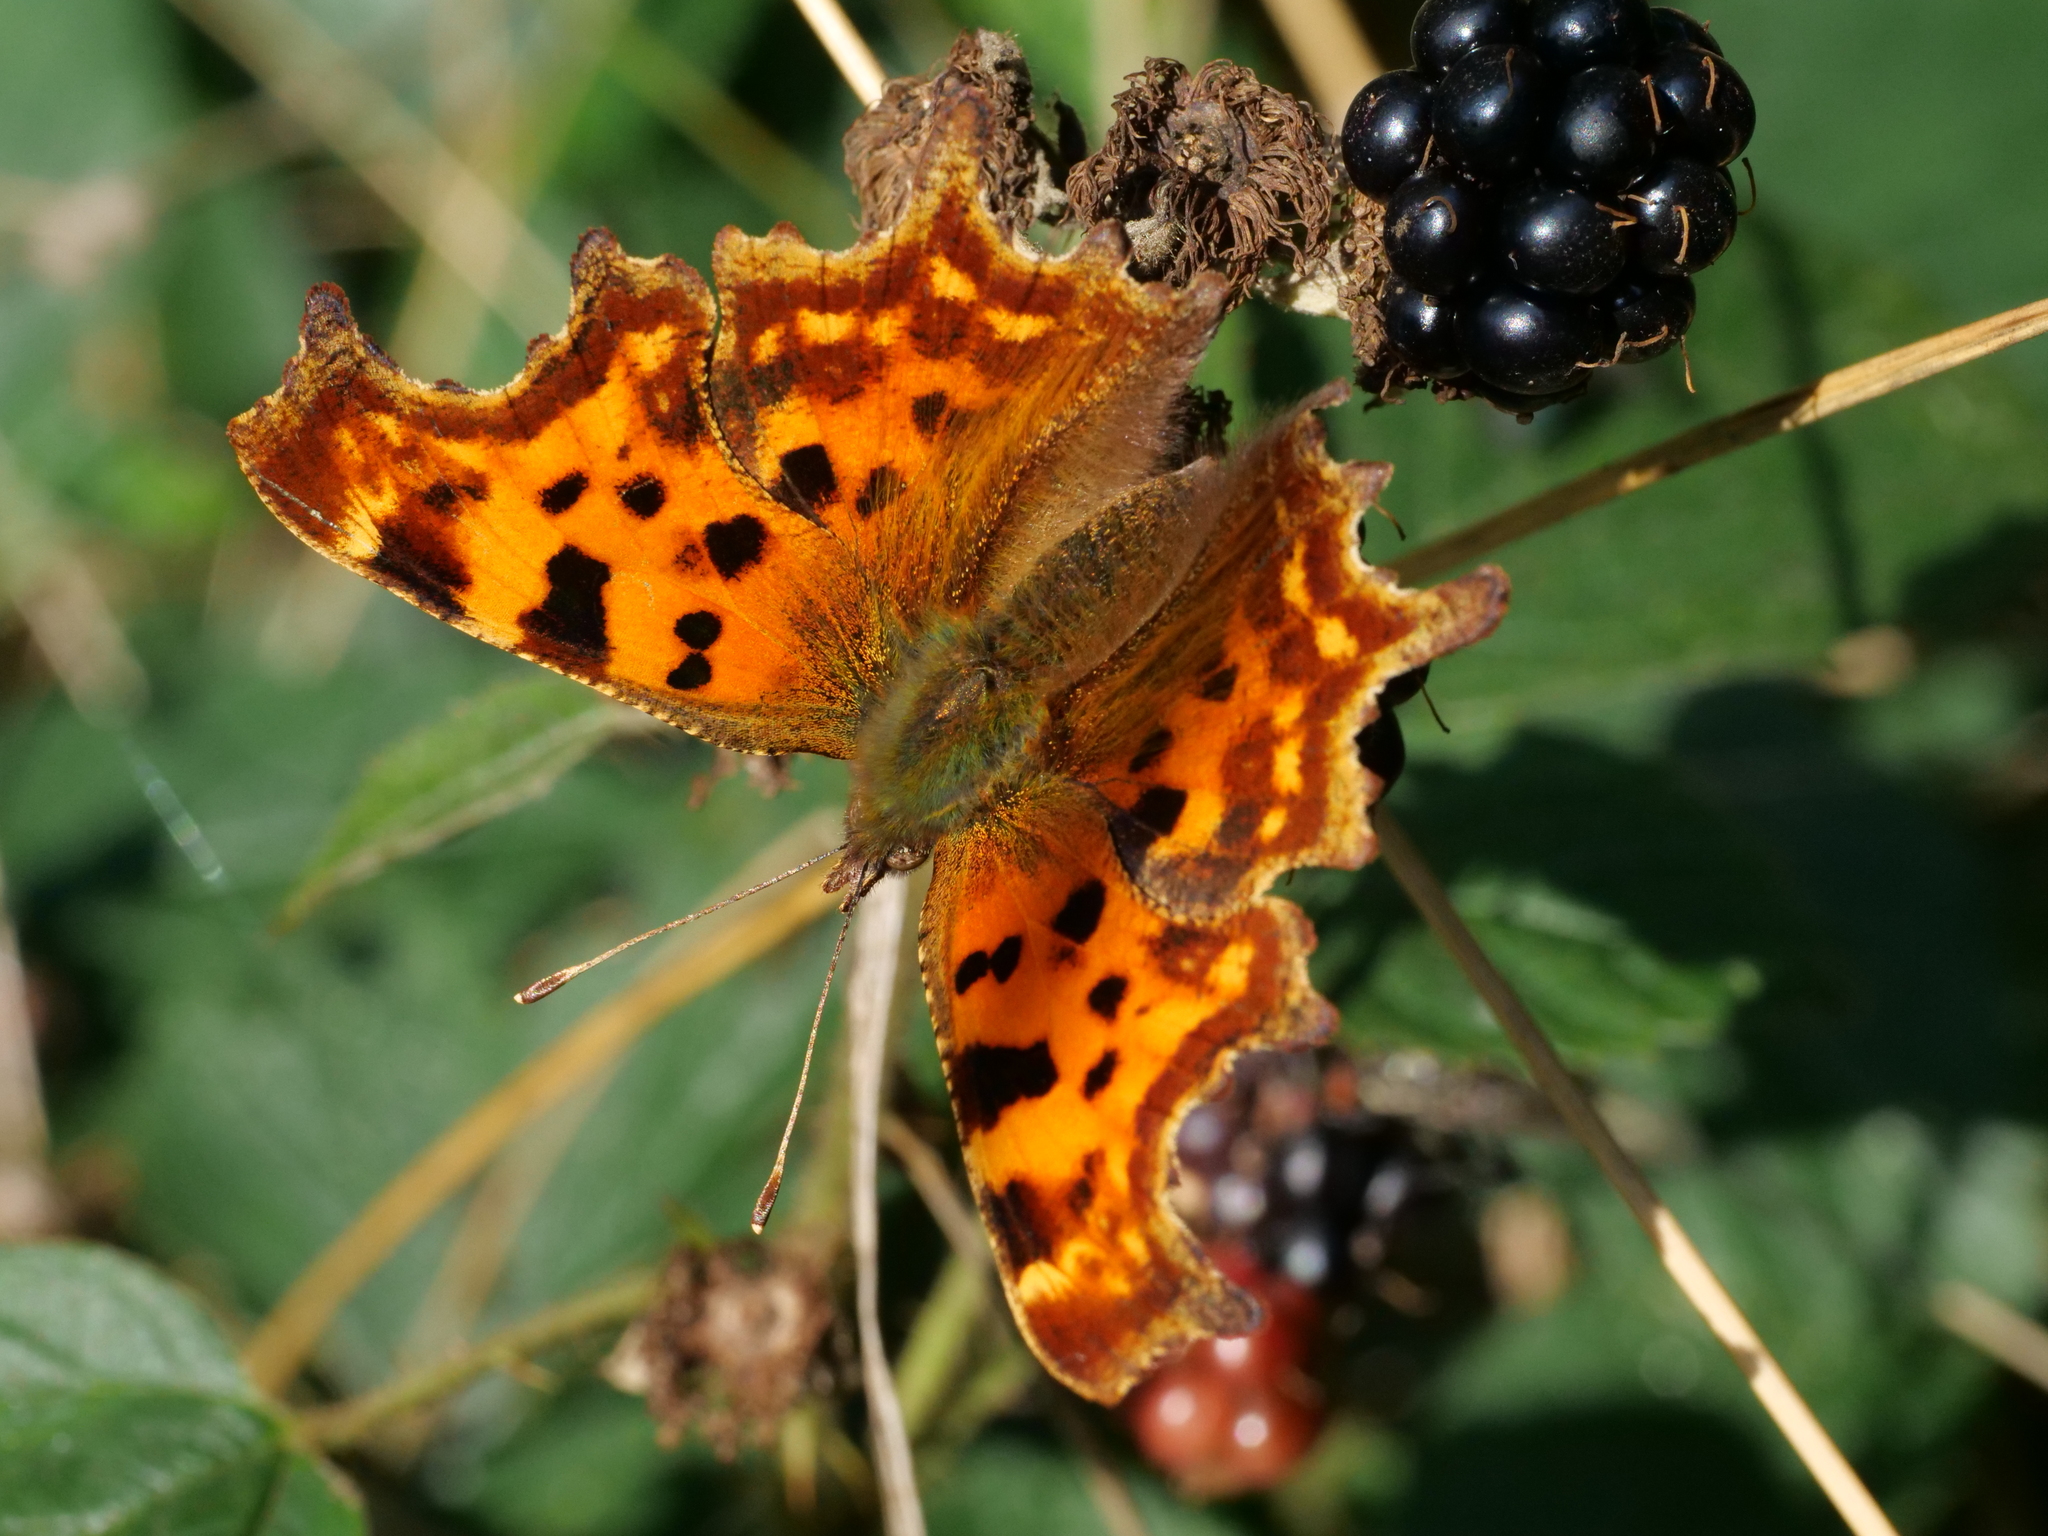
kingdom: Animalia
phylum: Arthropoda
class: Insecta
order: Lepidoptera
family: Nymphalidae
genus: Polygonia
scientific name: Polygonia c-album
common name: Comma
